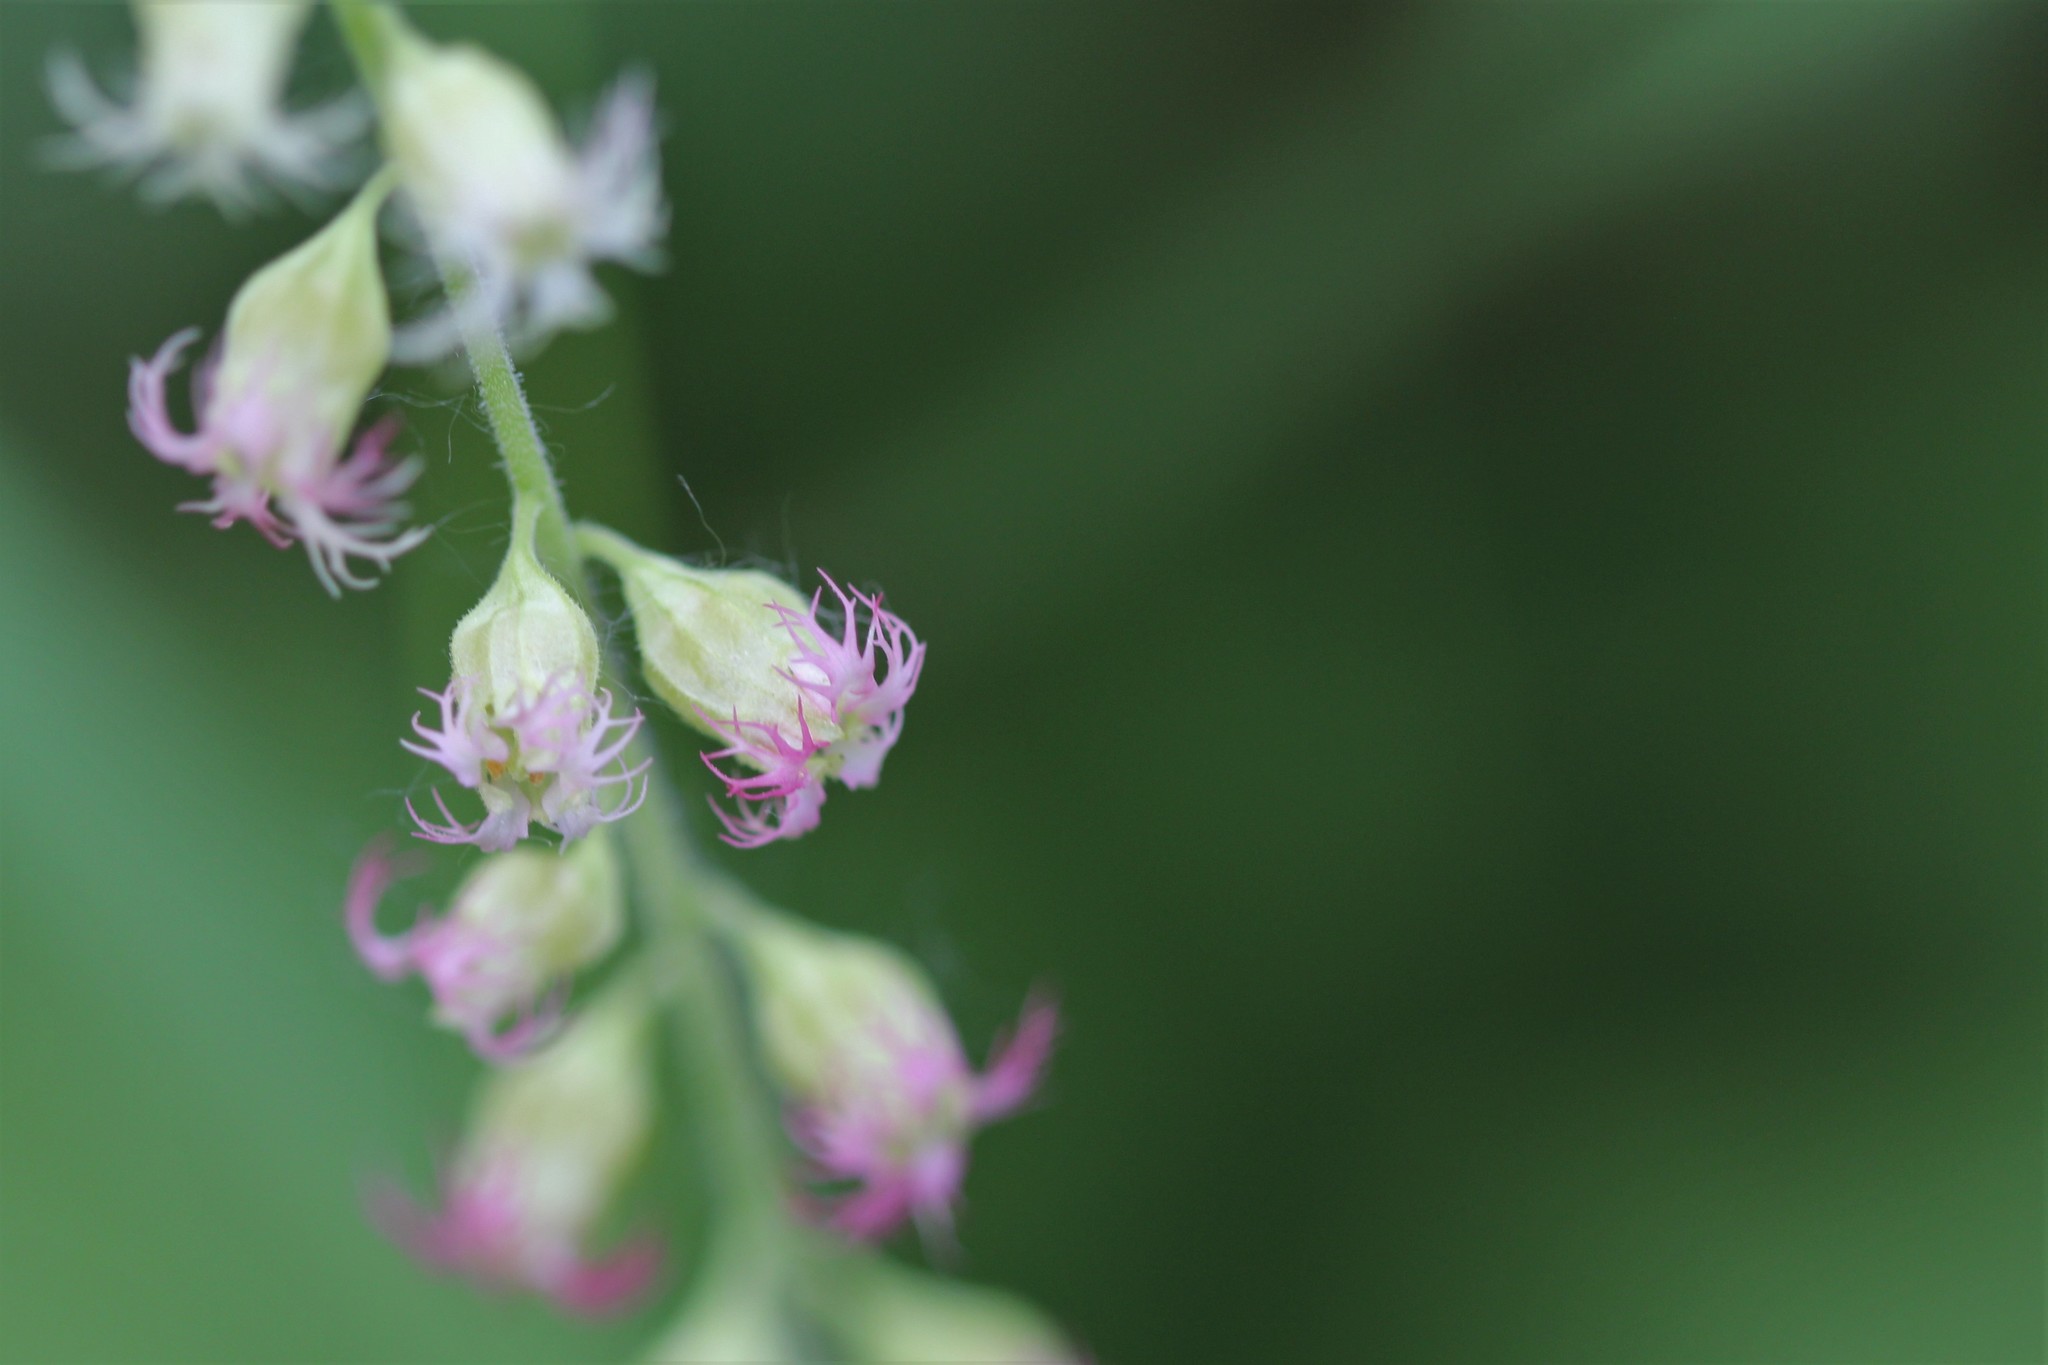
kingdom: Plantae
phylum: Tracheophyta
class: Magnoliopsida
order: Saxifragales
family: Saxifragaceae
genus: Tellima
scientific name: Tellima grandiflora
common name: Fringecups
